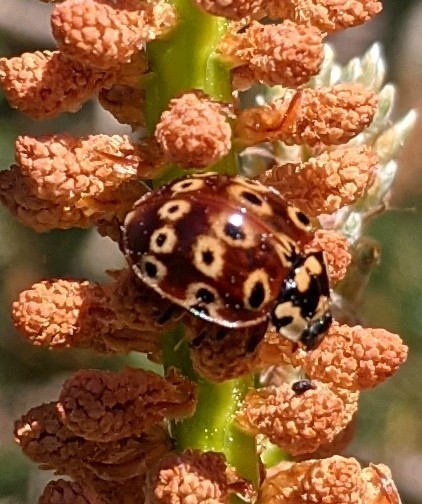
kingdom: Animalia
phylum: Arthropoda
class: Insecta
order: Coleoptera
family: Coccinellidae
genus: Anatis
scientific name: Anatis mali
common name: Eye-spotted lady beetle
